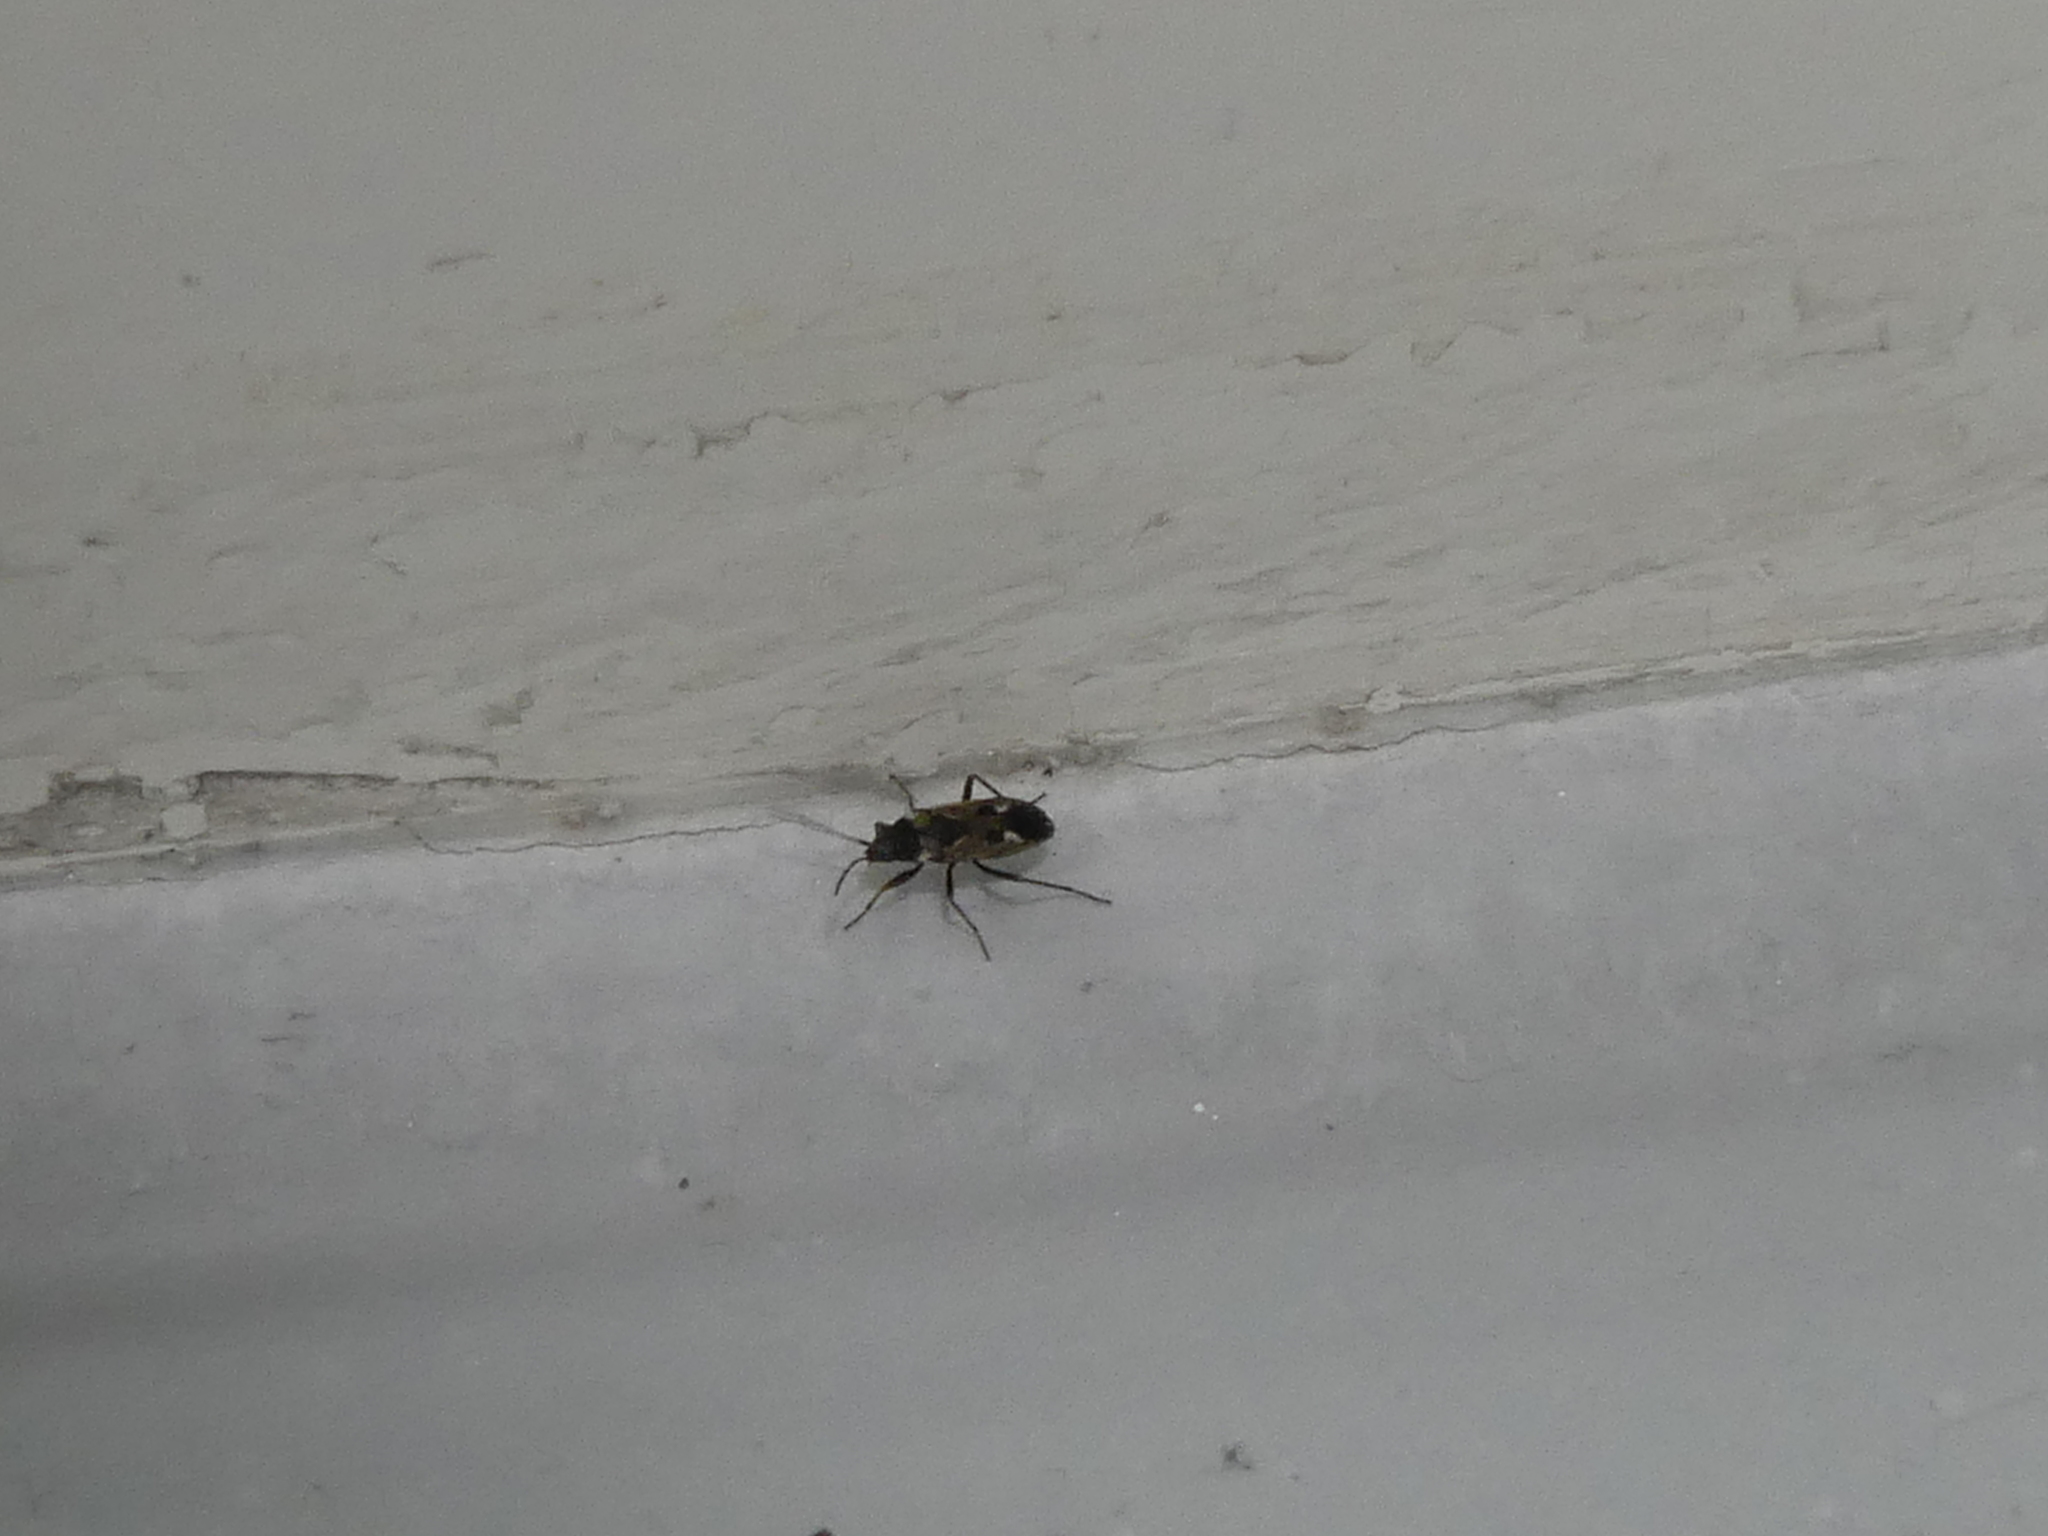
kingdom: Animalia
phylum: Arthropoda
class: Insecta
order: Hemiptera
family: Rhyparochromidae
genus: Rhyparochromus
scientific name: Rhyparochromus vulgaris
